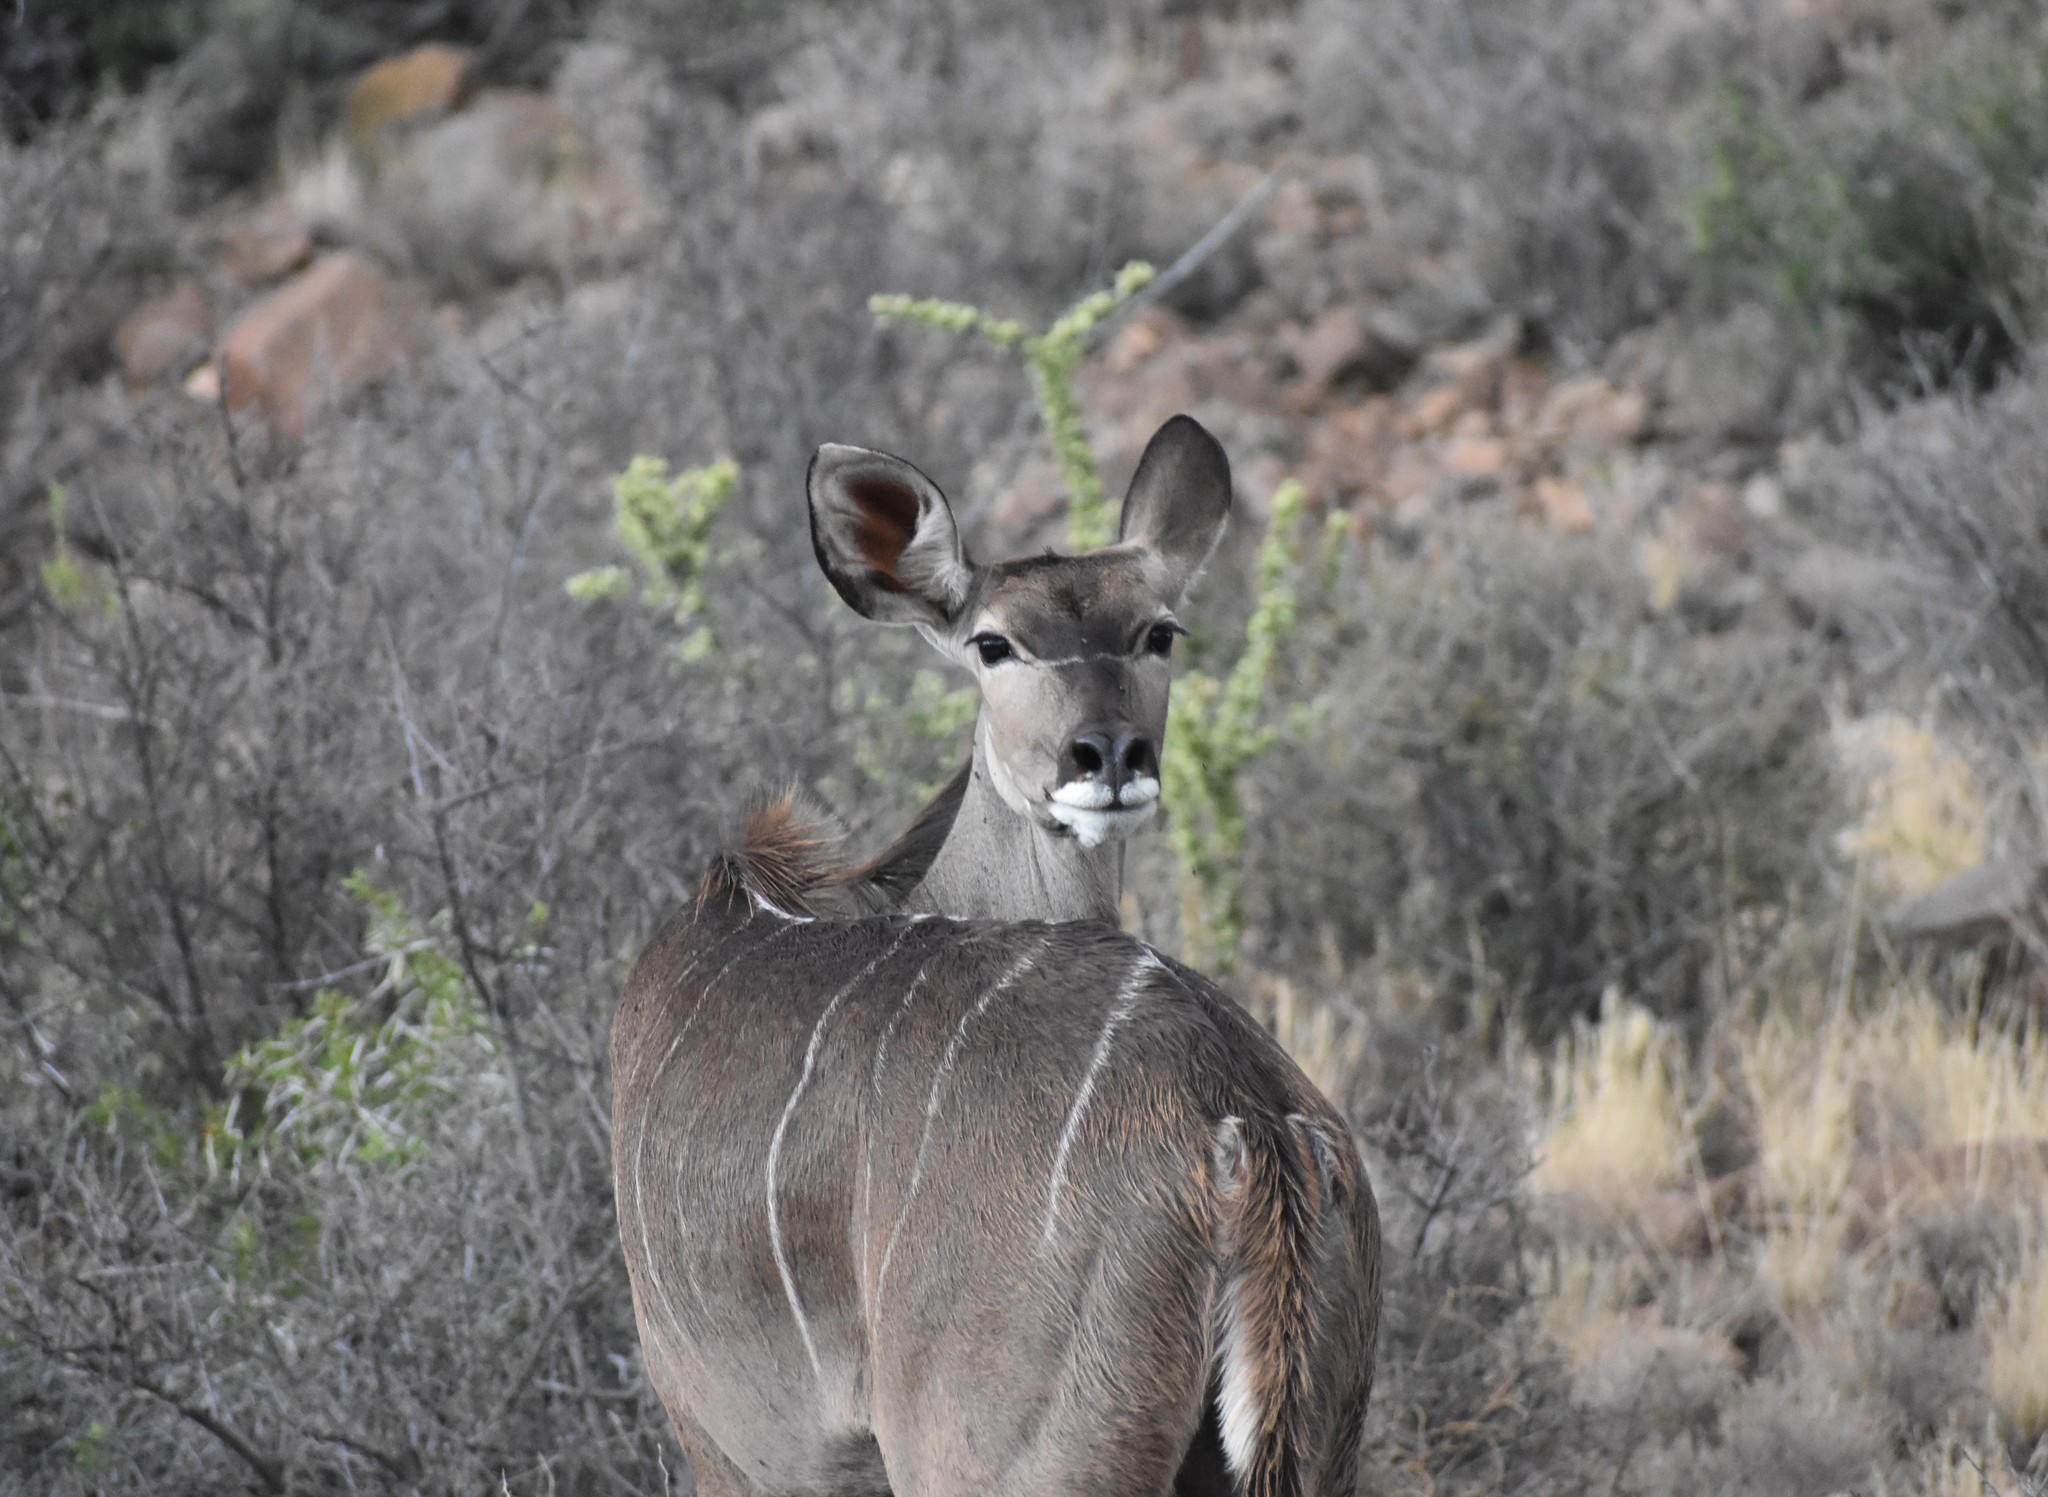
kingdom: Animalia
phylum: Chordata
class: Mammalia
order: Artiodactyla
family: Bovidae
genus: Tragelaphus
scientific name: Tragelaphus strepsiceros
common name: Greater kudu
